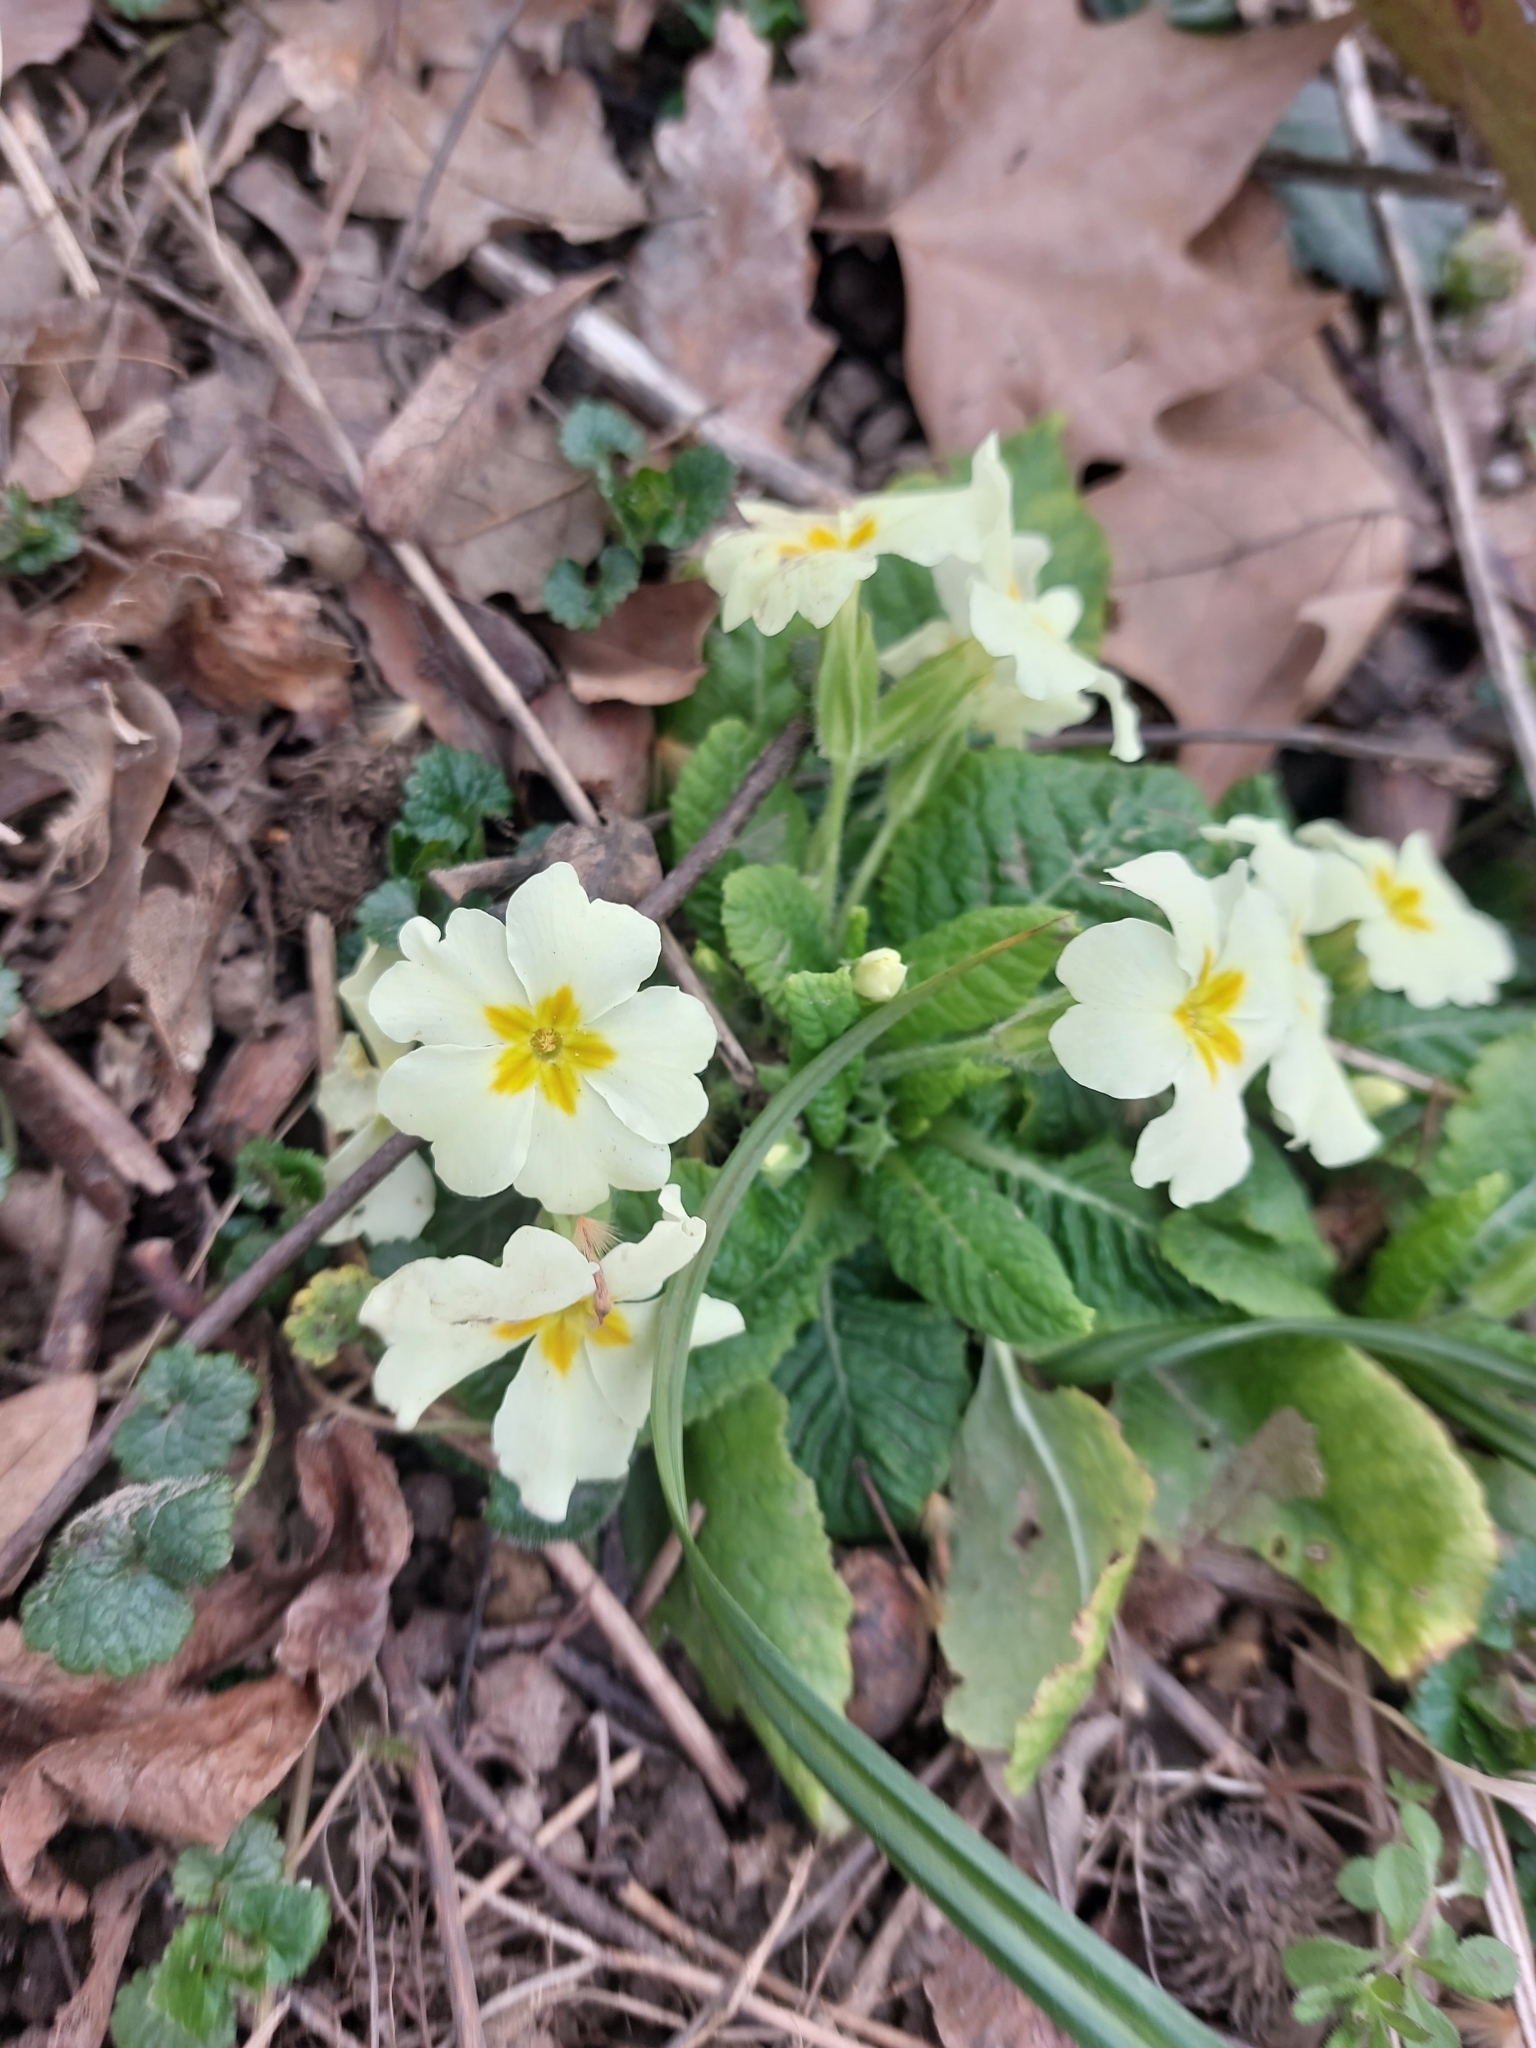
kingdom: Plantae
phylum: Tracheophyta
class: Magnoliopsida
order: Ericales
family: Primulaceae
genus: Primula
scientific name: Primula vulgaris
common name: Primrose
